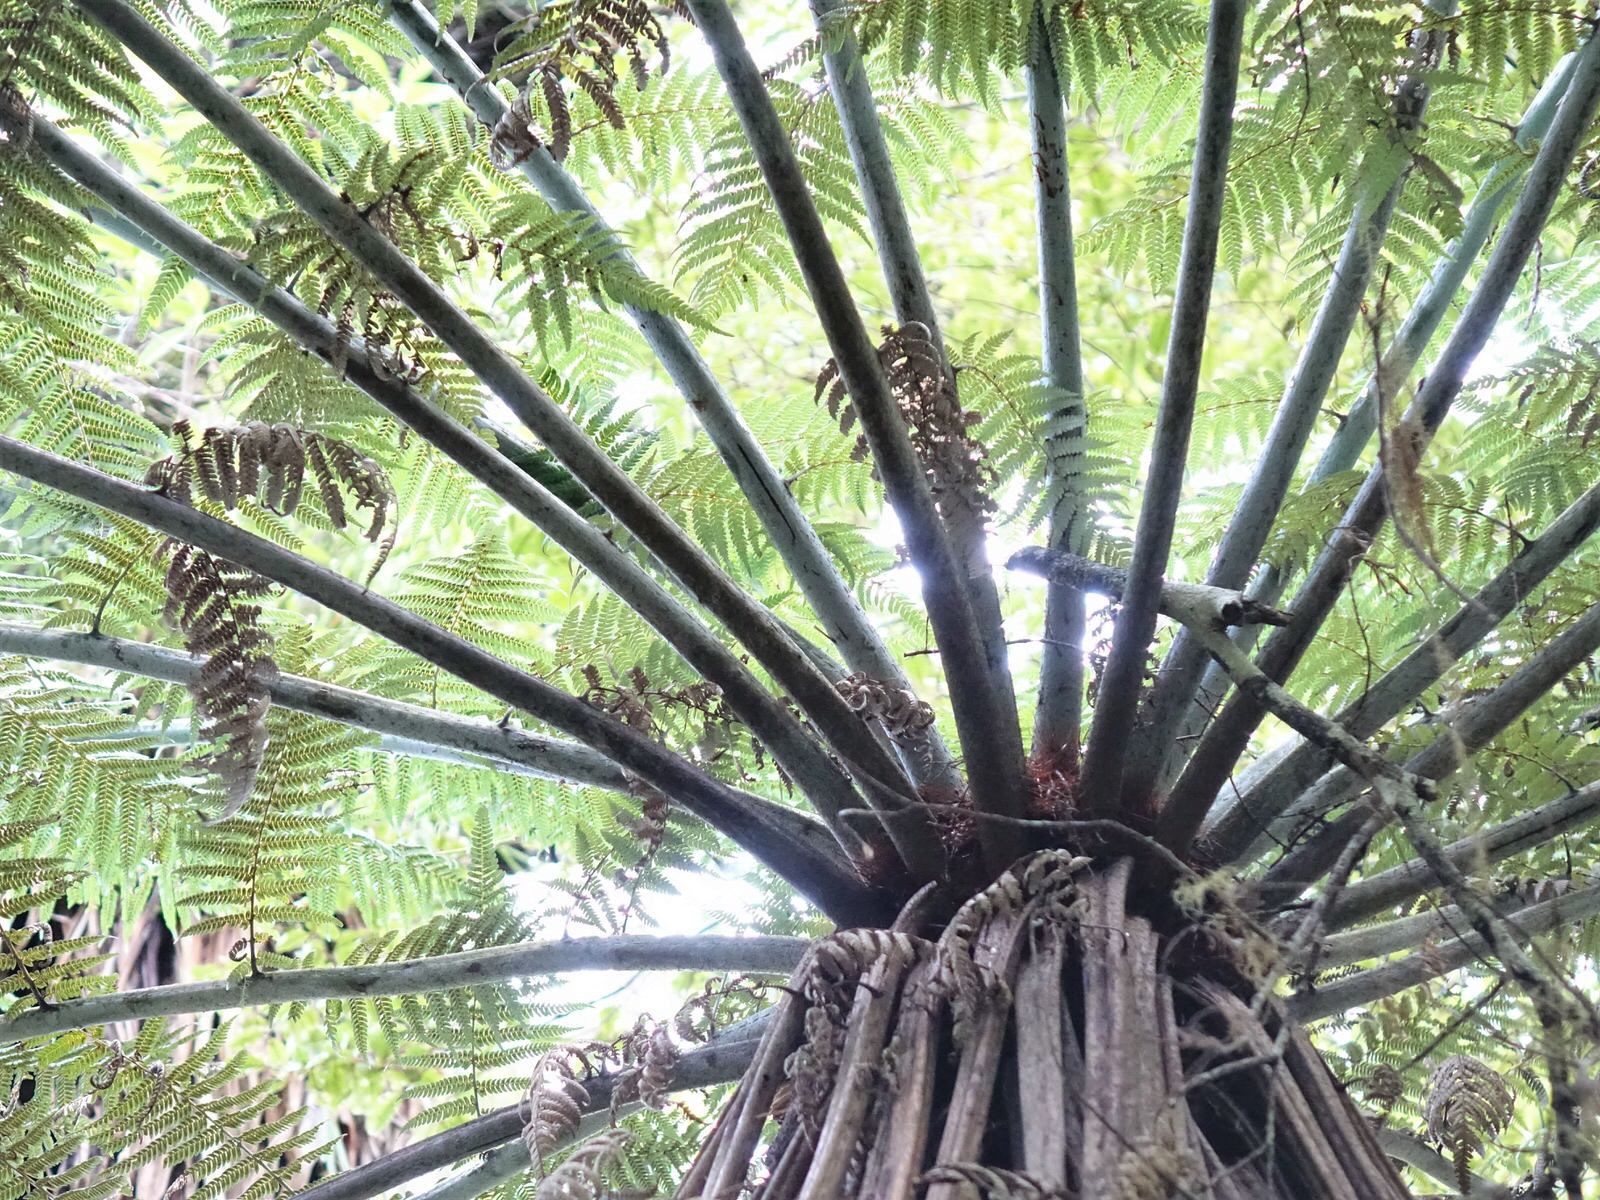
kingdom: Plantae
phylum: Tracheophyta
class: Polypodiopsida
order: Cyatheales
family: Cyatheaceae
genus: Alsophila
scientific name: Alsophila dealbata
